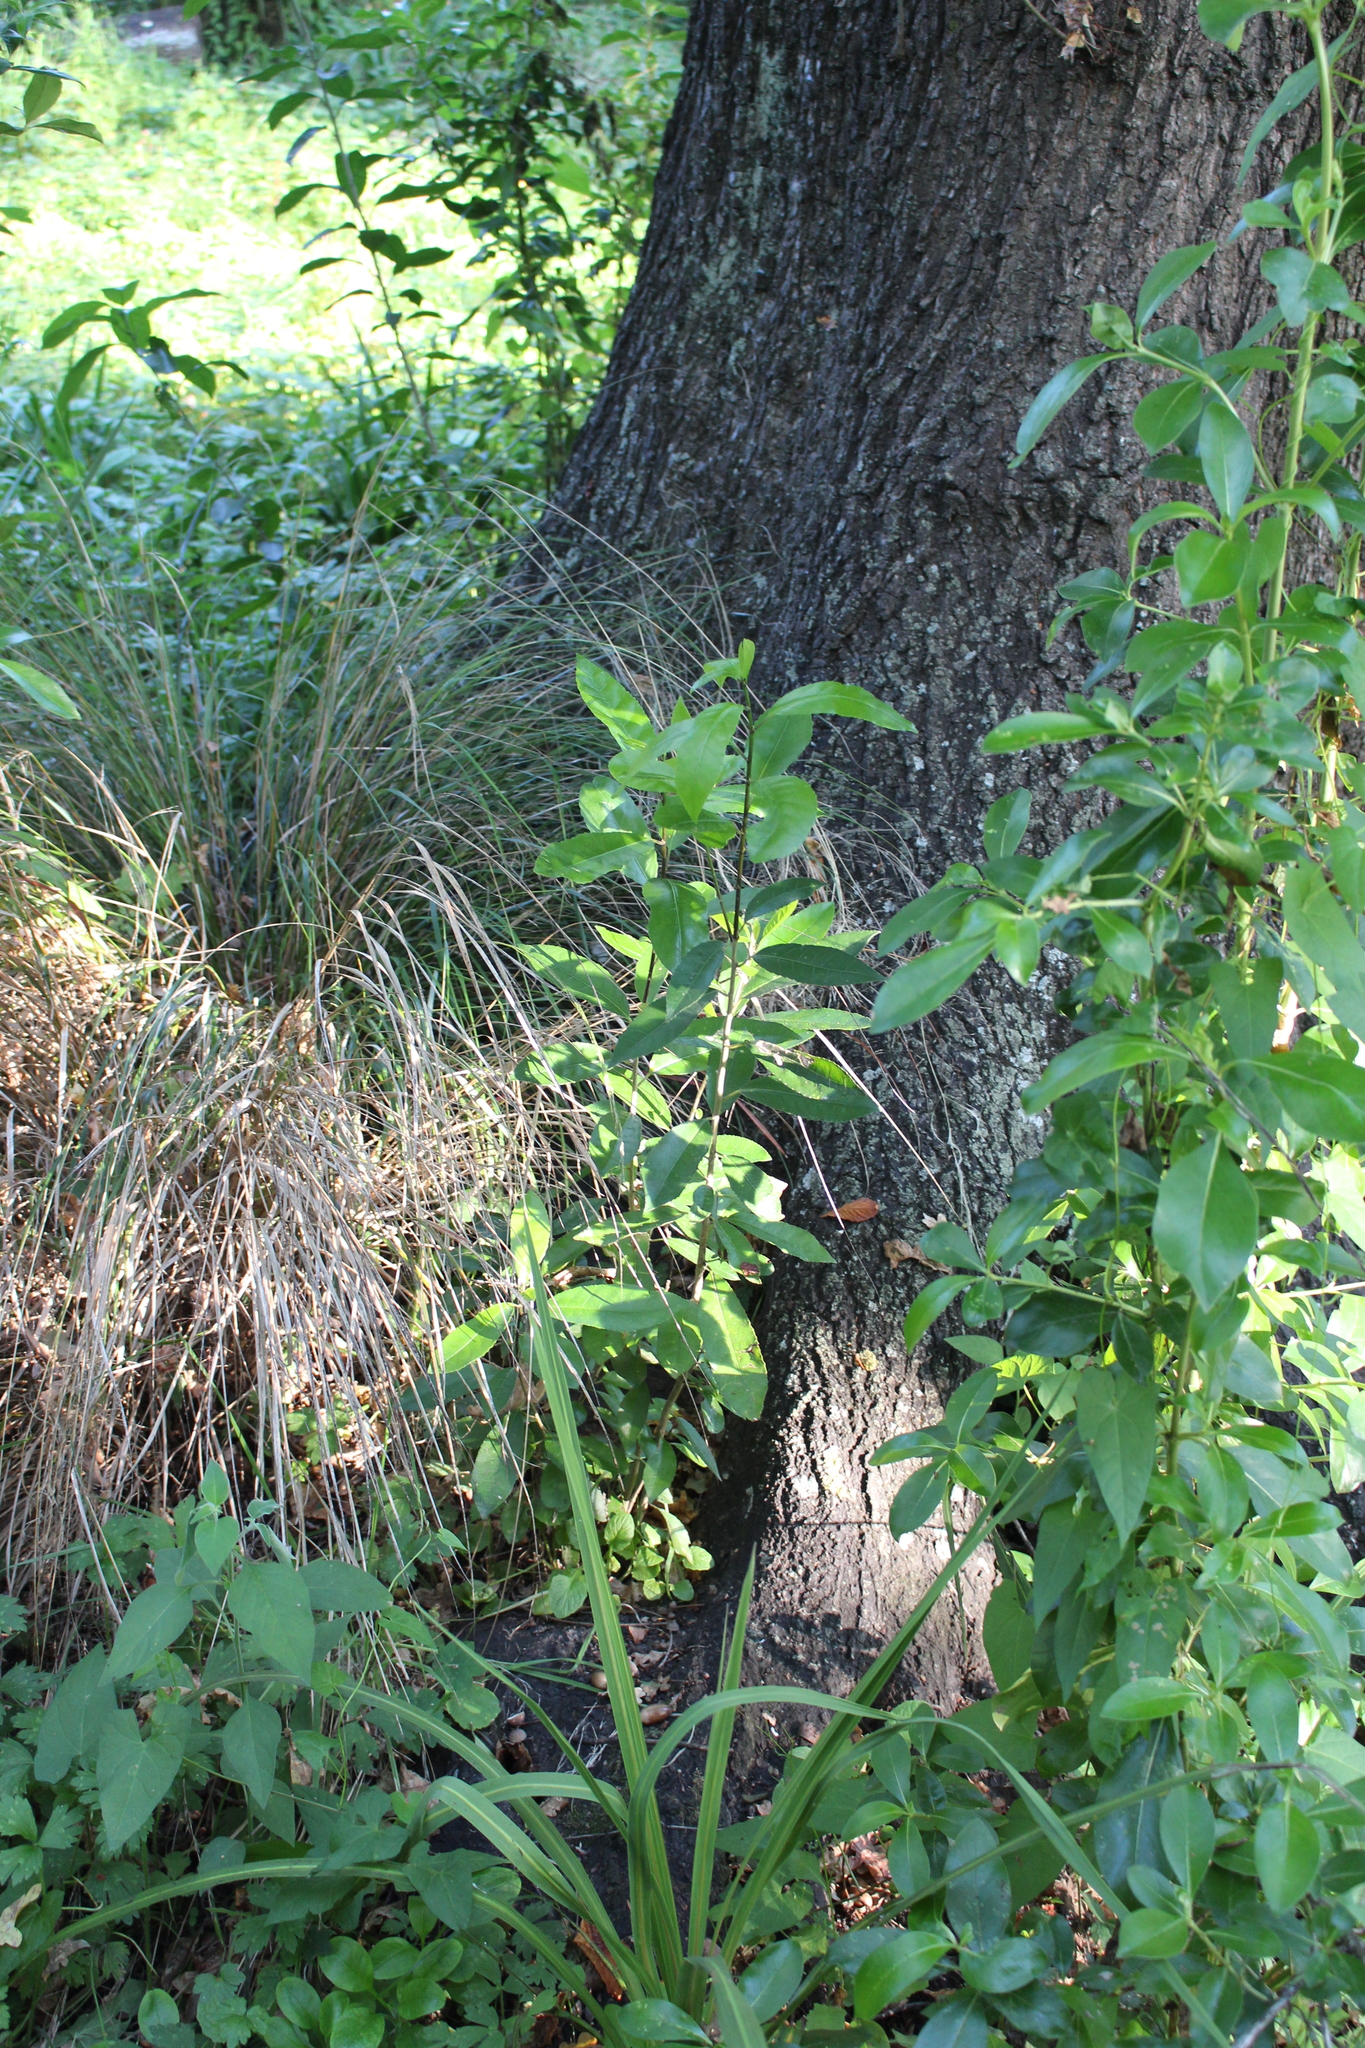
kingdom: Plantae
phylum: Tracheophyta
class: Magnoliopsida
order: Malpighiales
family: Violaceae
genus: Melicytus
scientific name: Melicytus ramiflorus
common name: Mahoe
